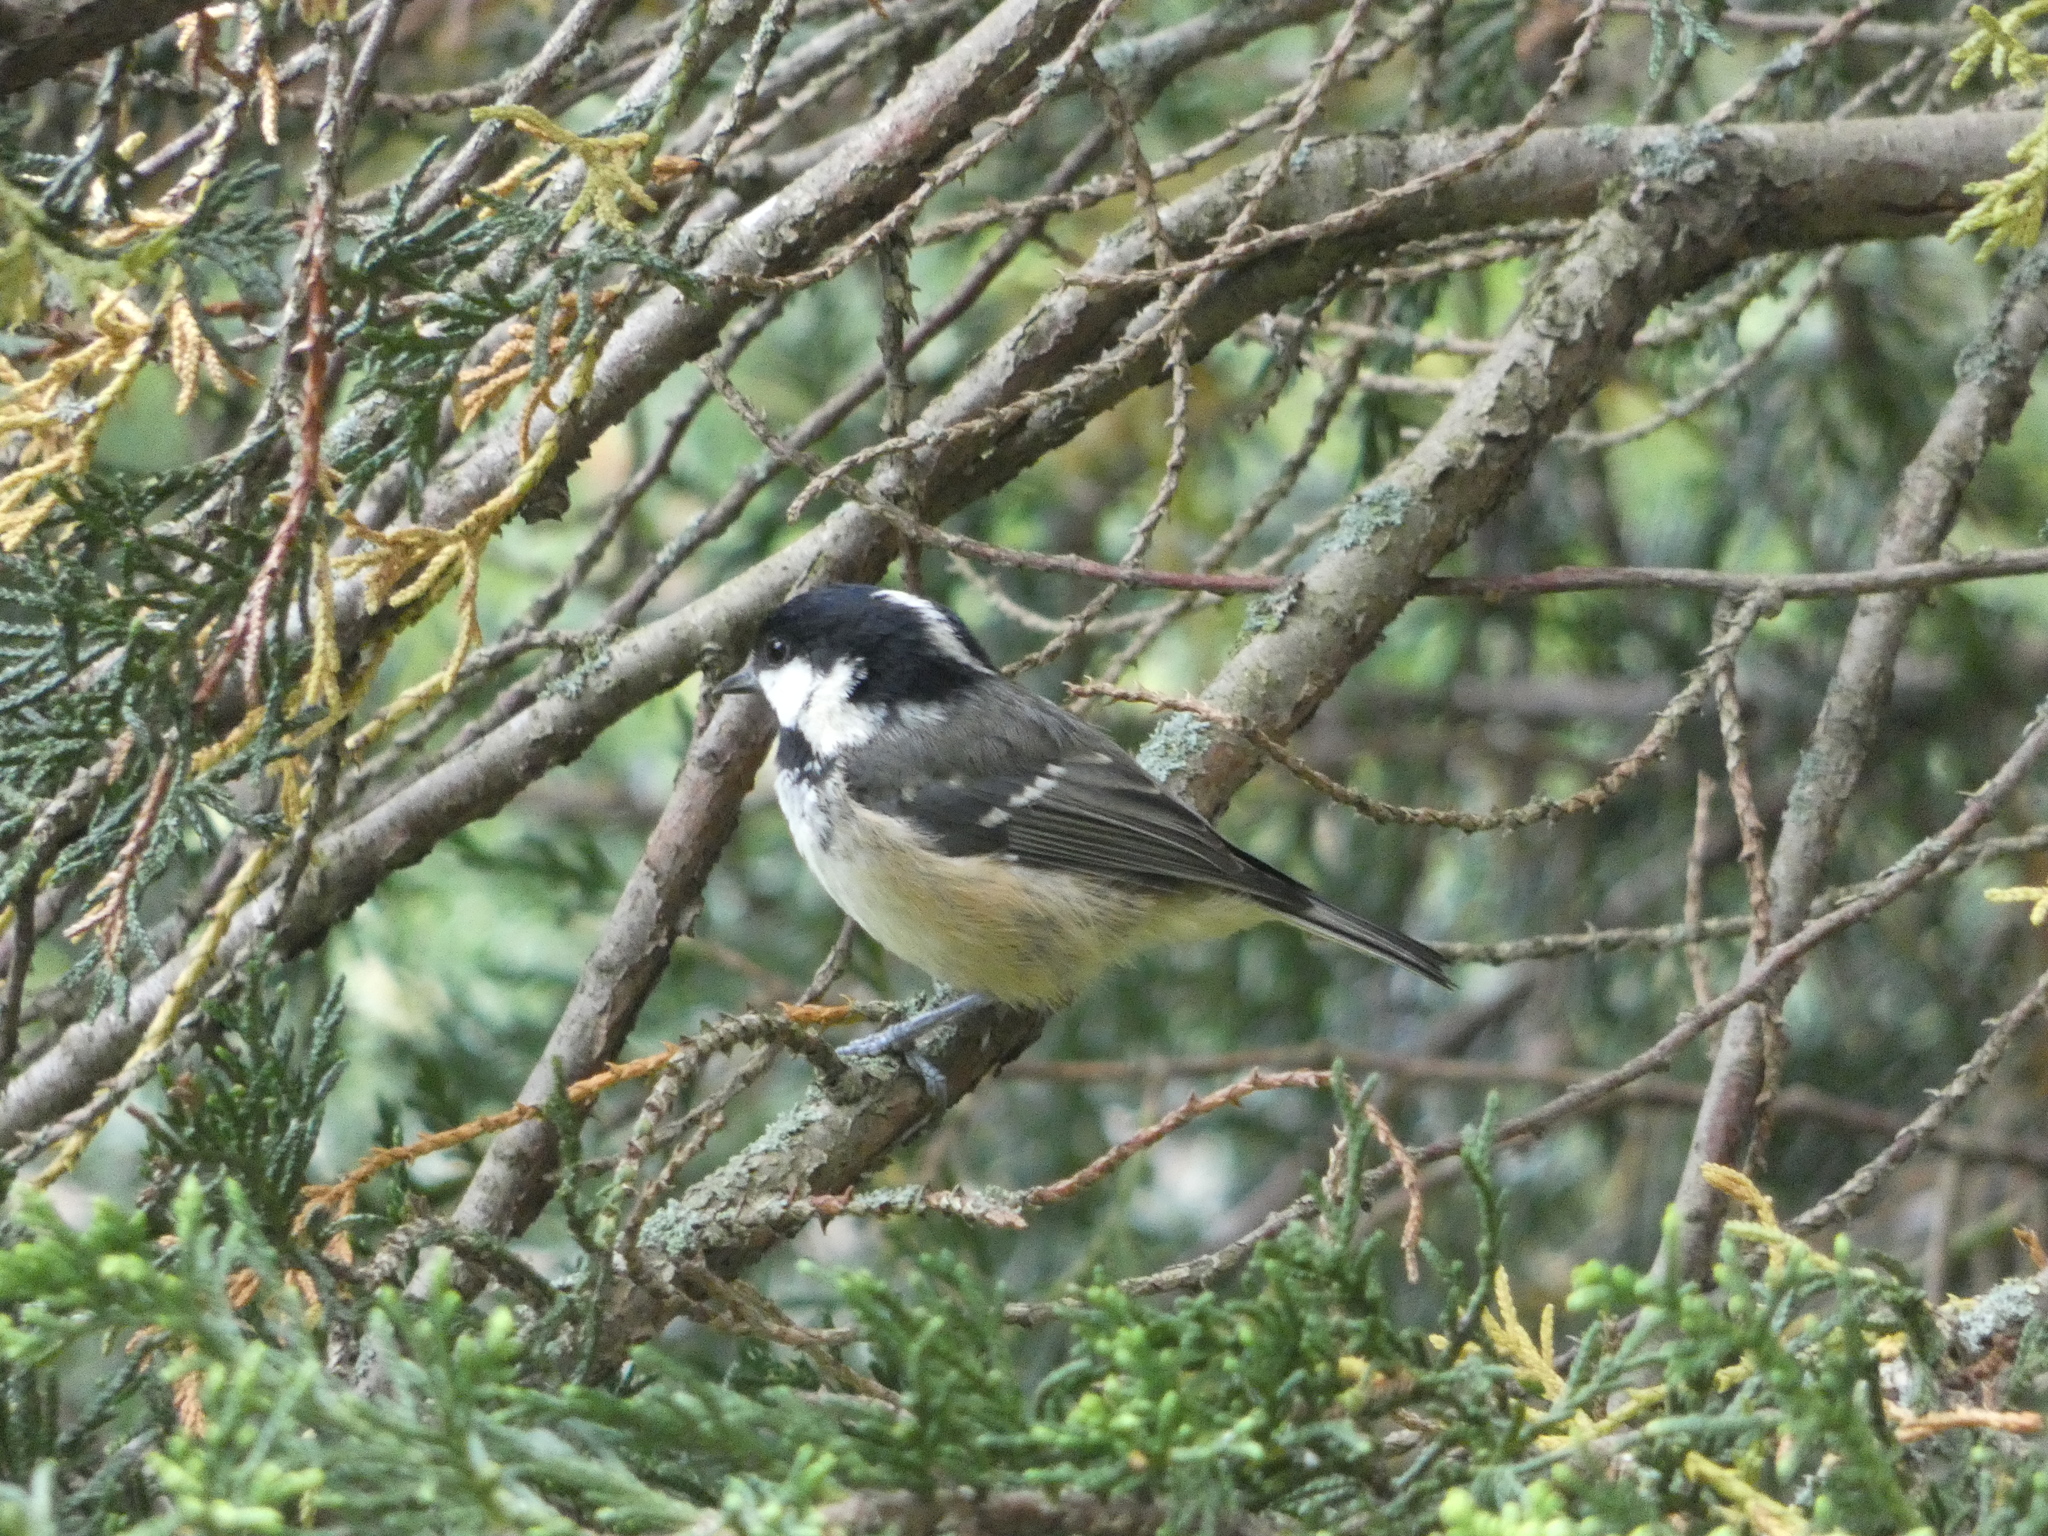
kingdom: Animalia
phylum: Chordata
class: Aves
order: Passeriformes
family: Paridae
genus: Periparus
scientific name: Periparus ater
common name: Coal tit
